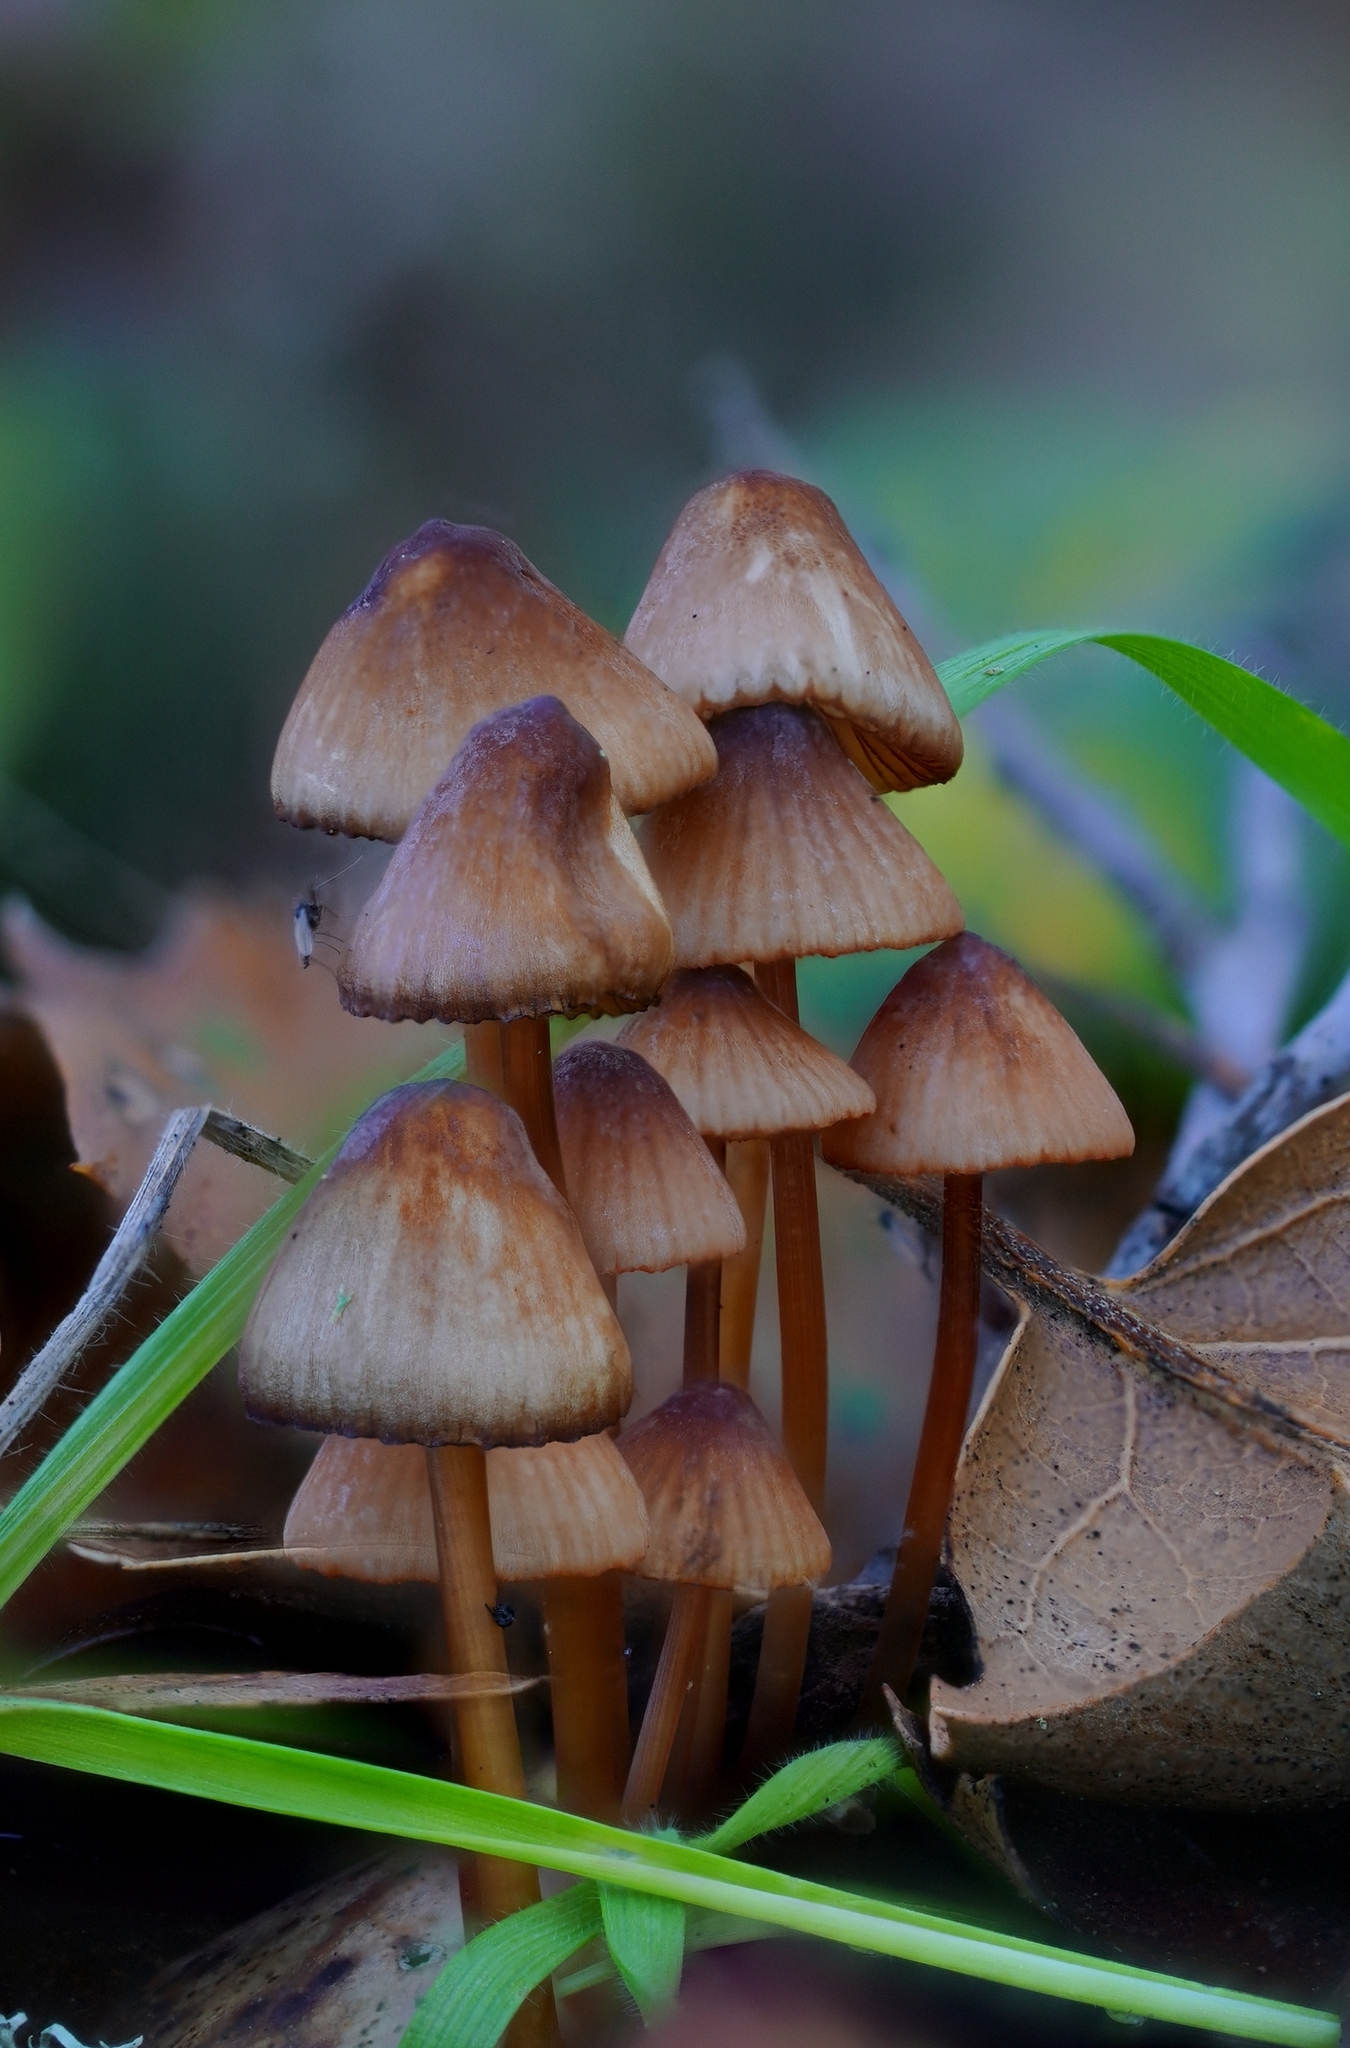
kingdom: Fungi
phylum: Basidiomycota
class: Agaricomycetes
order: Agaricales
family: Mycenaceae
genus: Mycena
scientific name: Mycena
